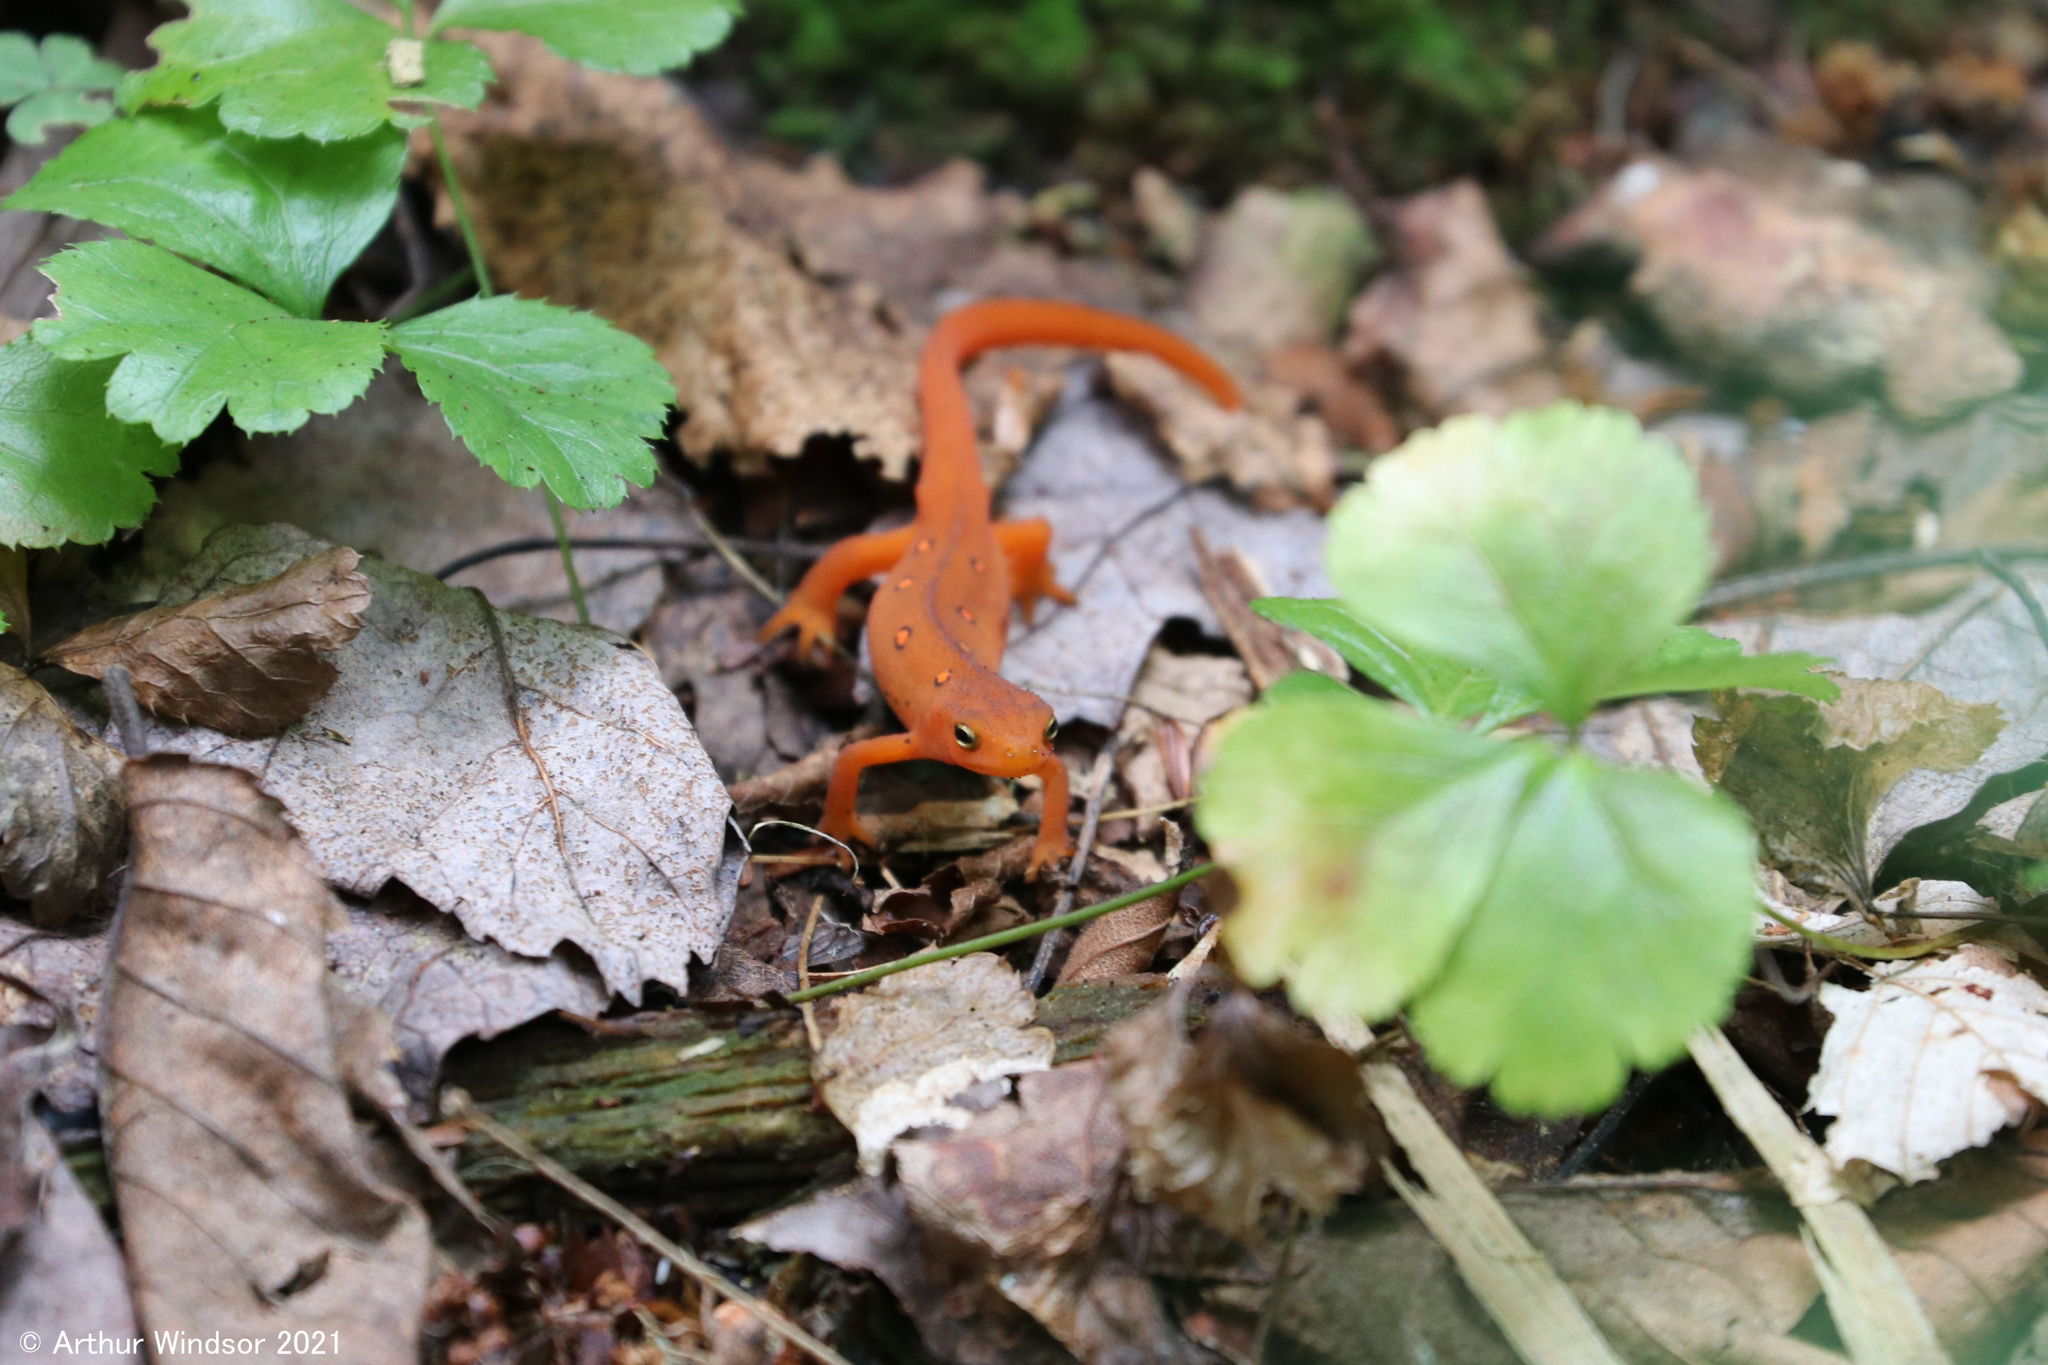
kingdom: Animalia
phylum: Chordata
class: Amphibia
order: Caudata
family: Salamandridae
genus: Notophthalmus
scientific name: Notophthalmus viridescens
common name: Eastern newt
